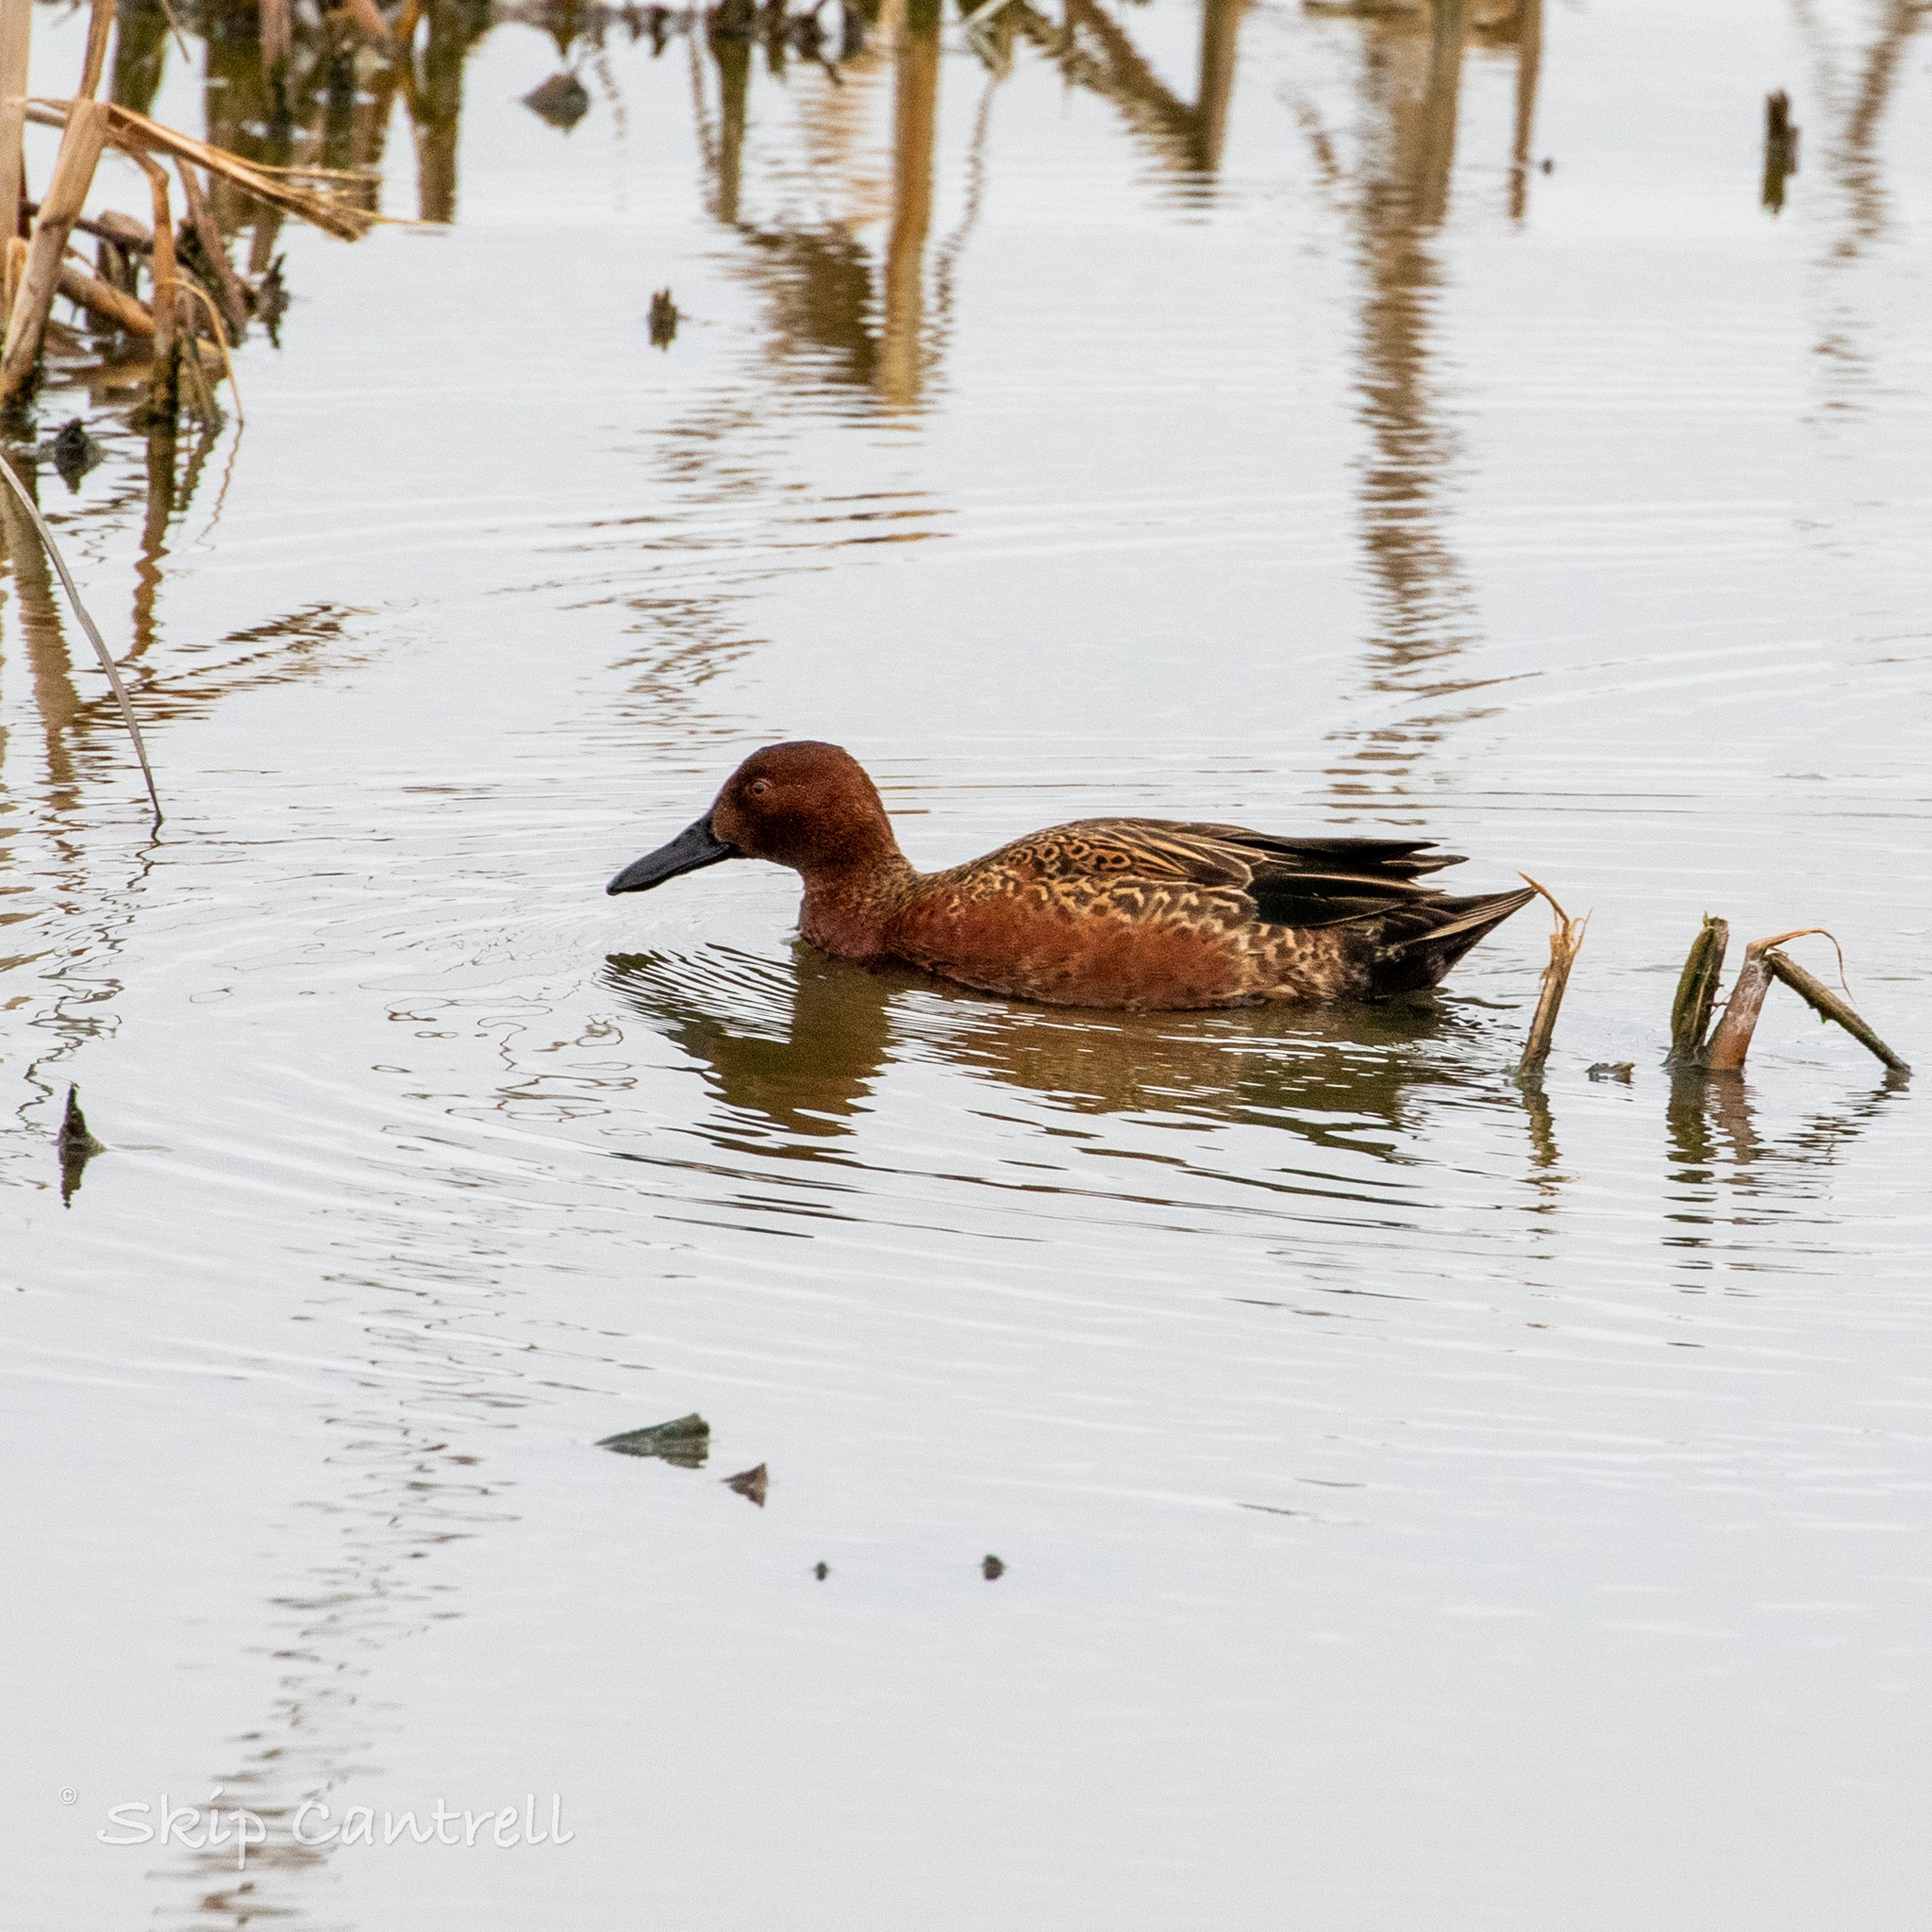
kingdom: Animalia
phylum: Chordata
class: Aves
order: Anseriformes
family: Anatidae
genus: Spatula
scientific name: Spatula cyanoptera
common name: Cinnamon teal
